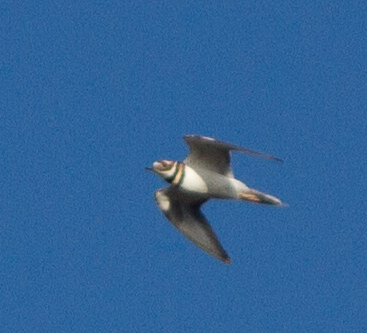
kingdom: Animalia
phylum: Chordata
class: Aves
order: Charadriiformes
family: Charadriidae
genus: Charadrius
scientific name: Charadrius vociferus
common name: Killdeer
